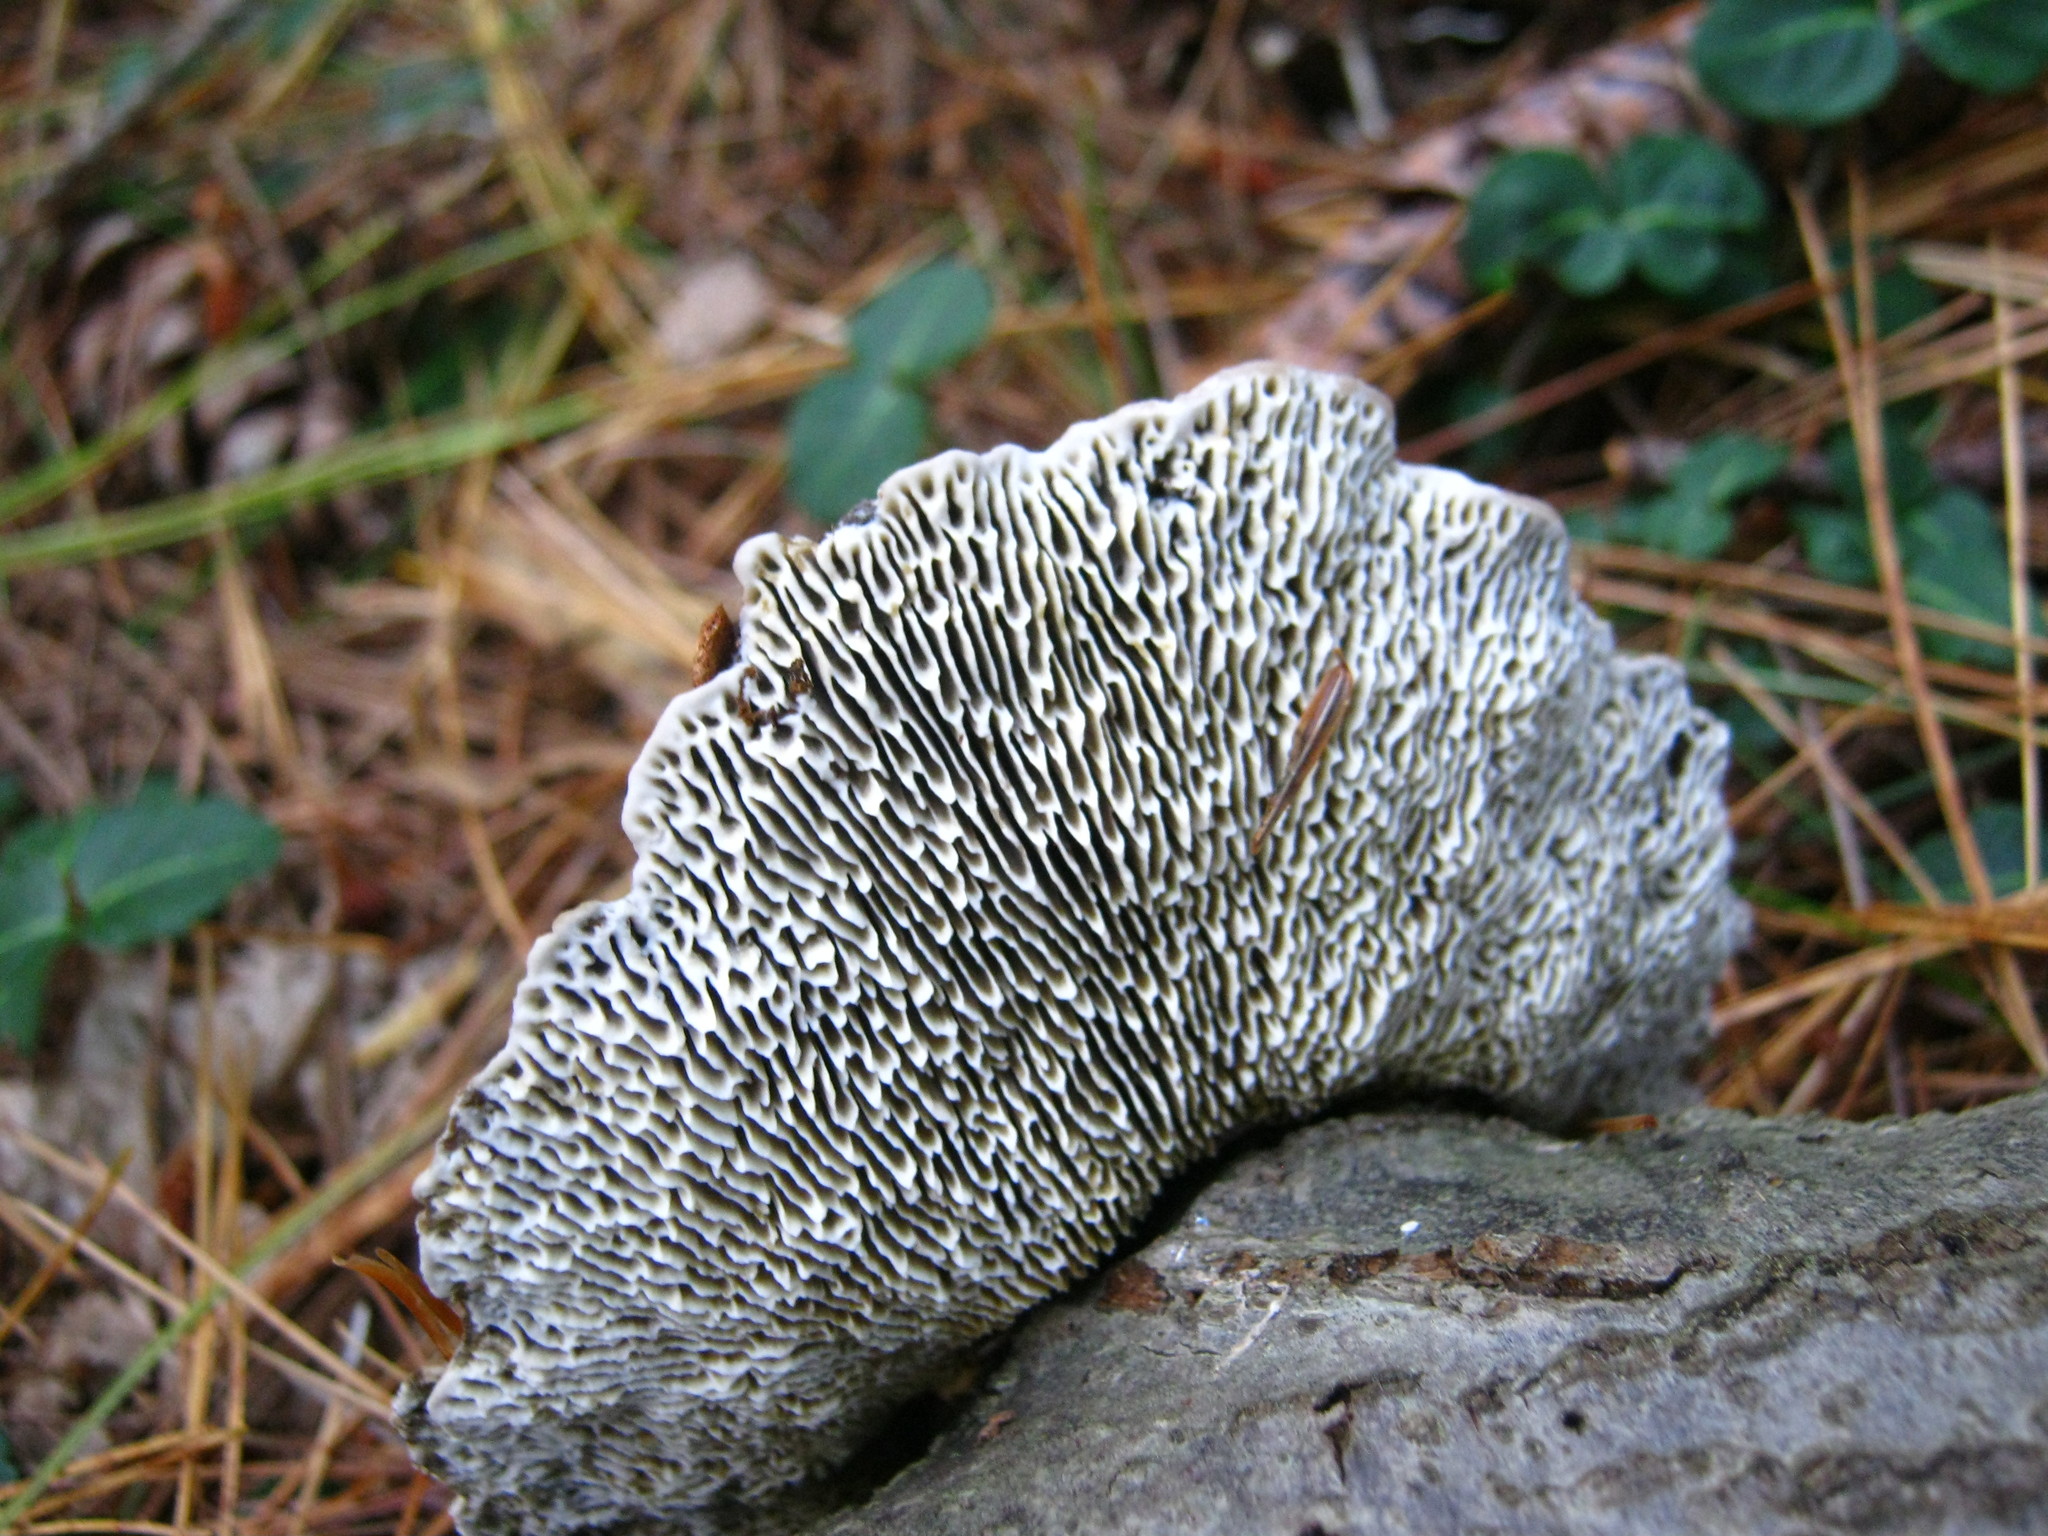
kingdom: Fungi
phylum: Basidiomycota
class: Agaricomycetes
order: Polyporales
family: Polyporaceae
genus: Daedaleopsis
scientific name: Daedaleopsis confragosa
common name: Blushing bracket
